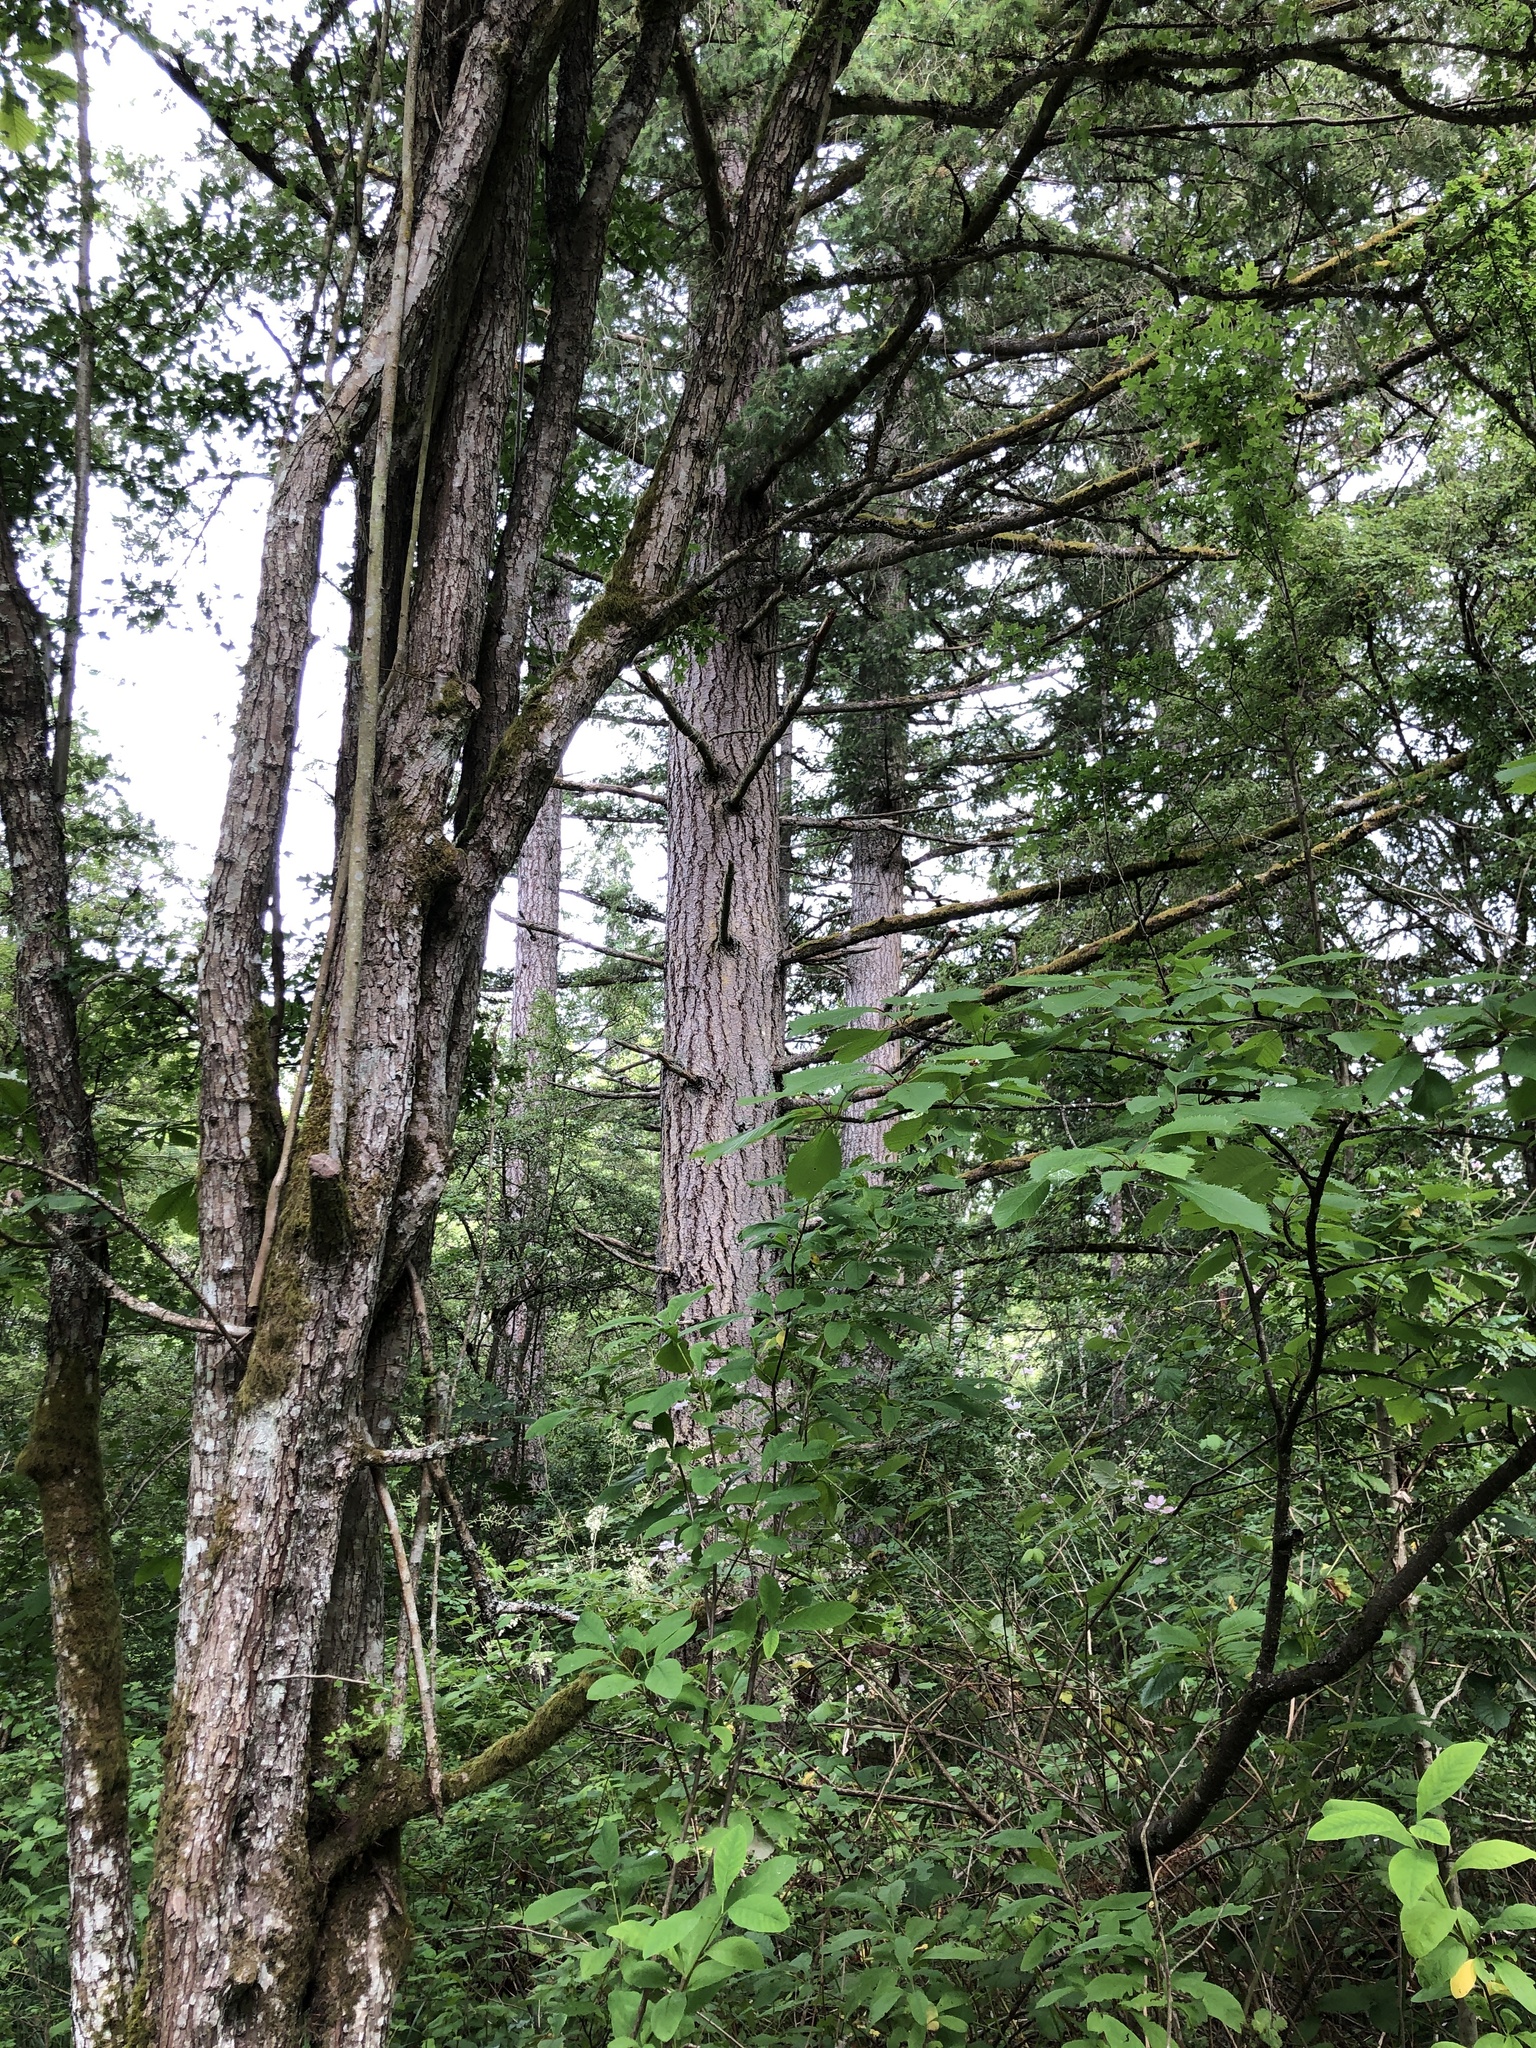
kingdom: Plantae
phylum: Tracheophyta
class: Pinopsida
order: Pinales
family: Pinaceae
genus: Pseudotsuga
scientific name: Pseudotsuga menziesii
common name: Douglas fir
